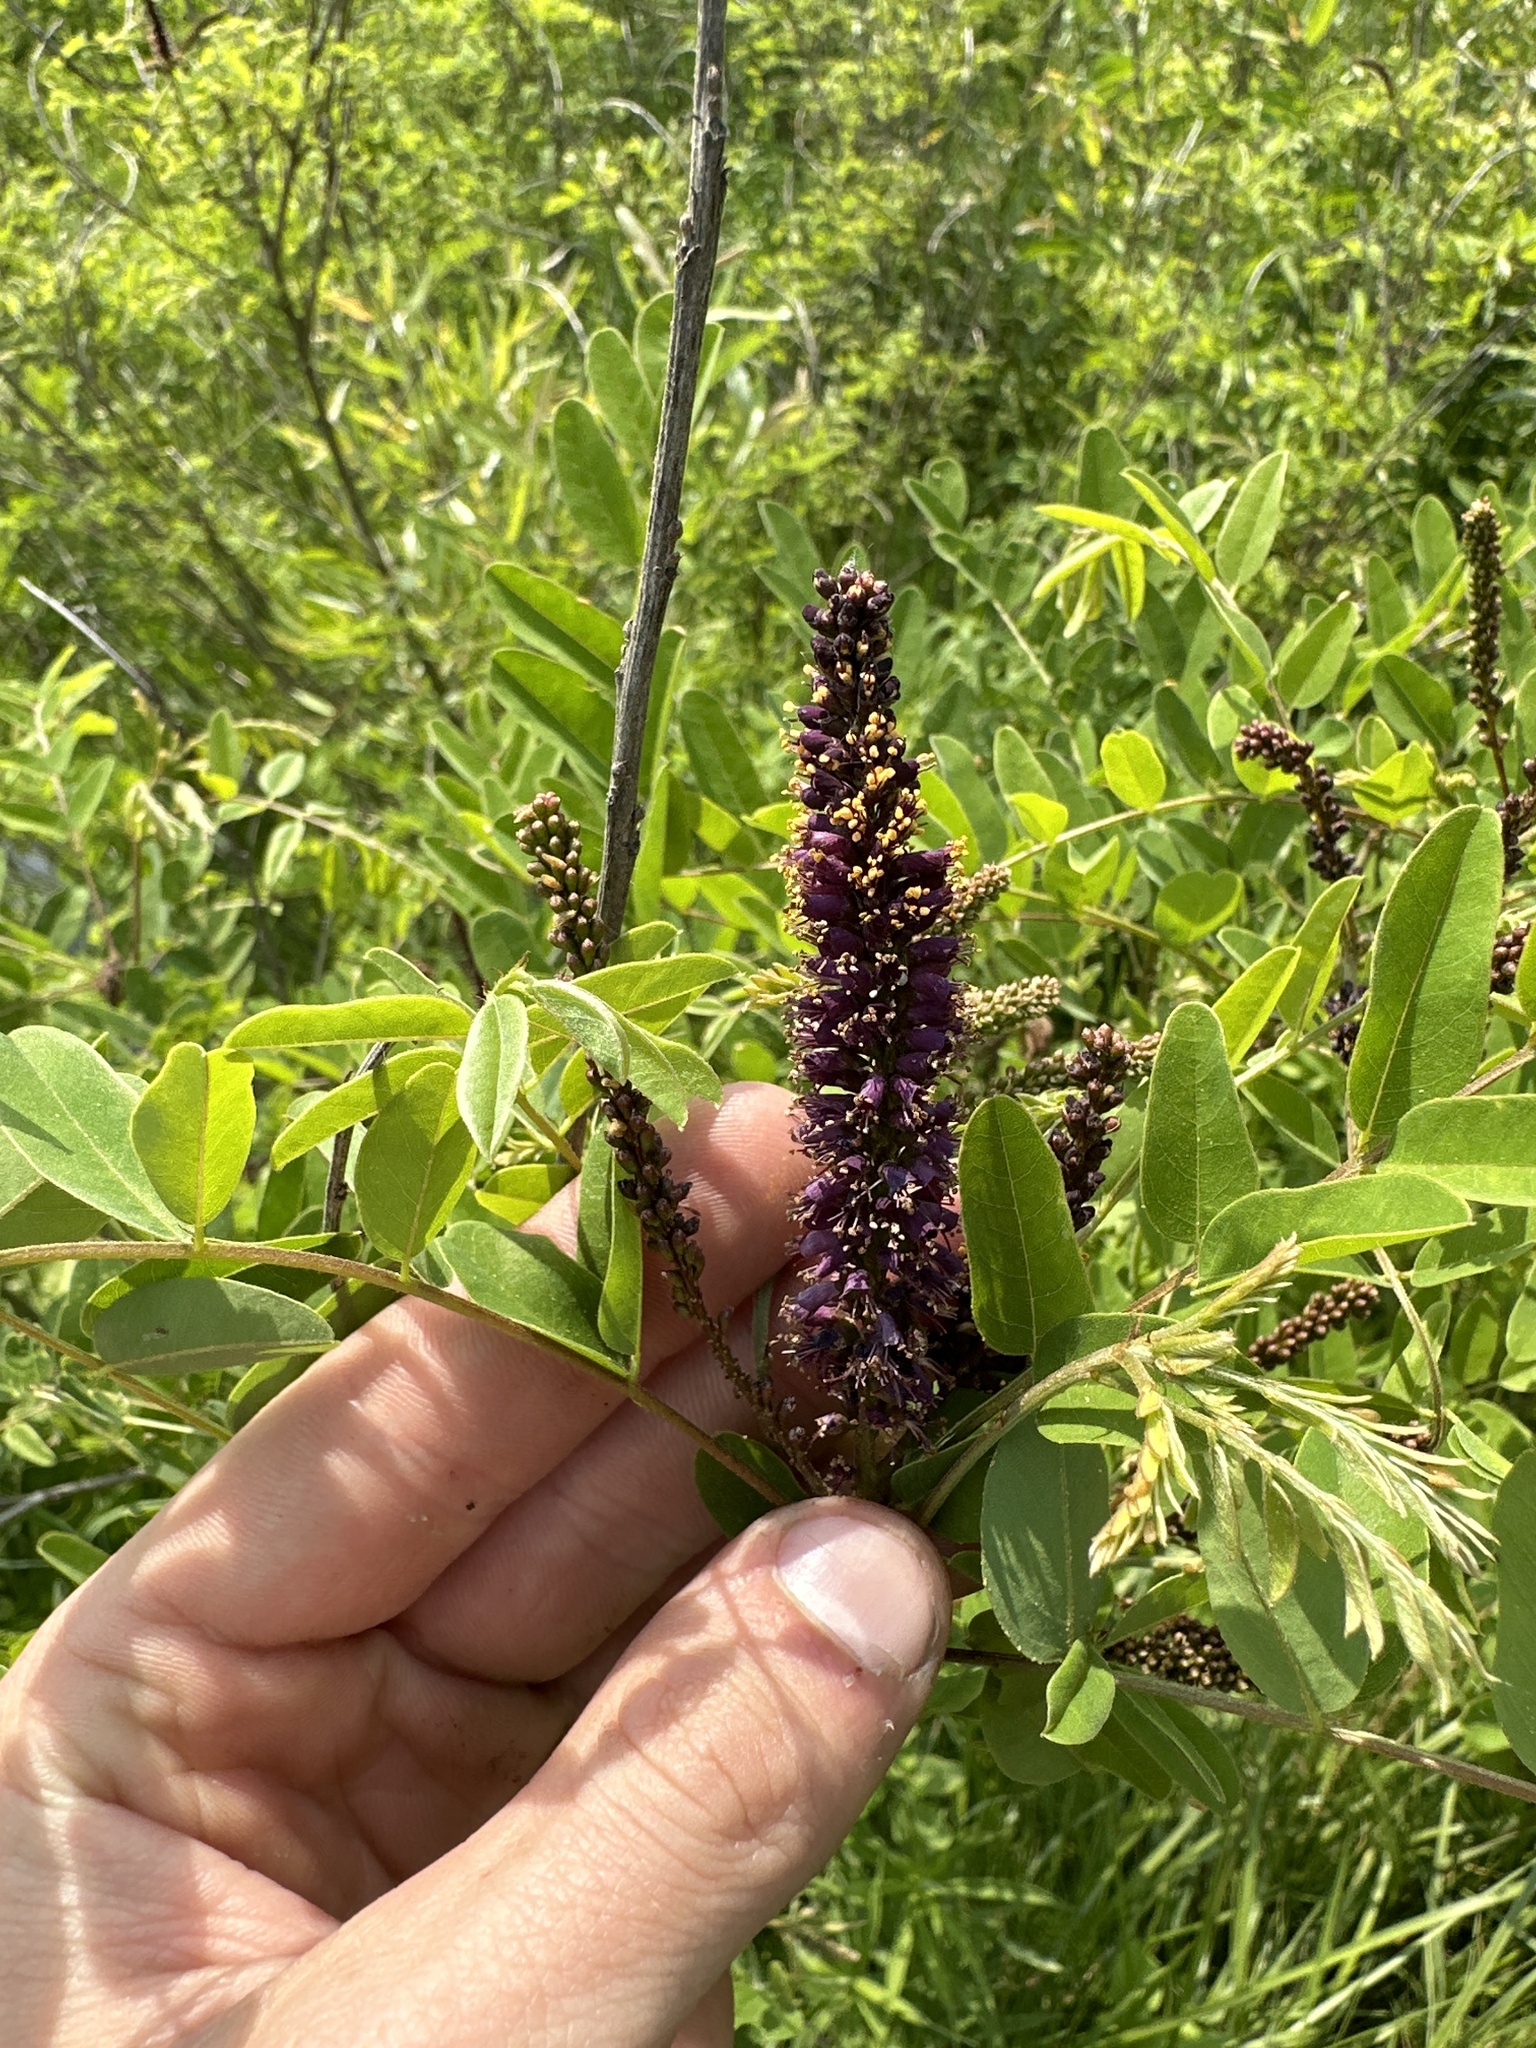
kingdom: Plantae
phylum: Tracheophyta
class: Magnoliopsida
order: Fabales
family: Fabaceae
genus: Amorpha
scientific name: Amorpha fruticosa
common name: False indigo
